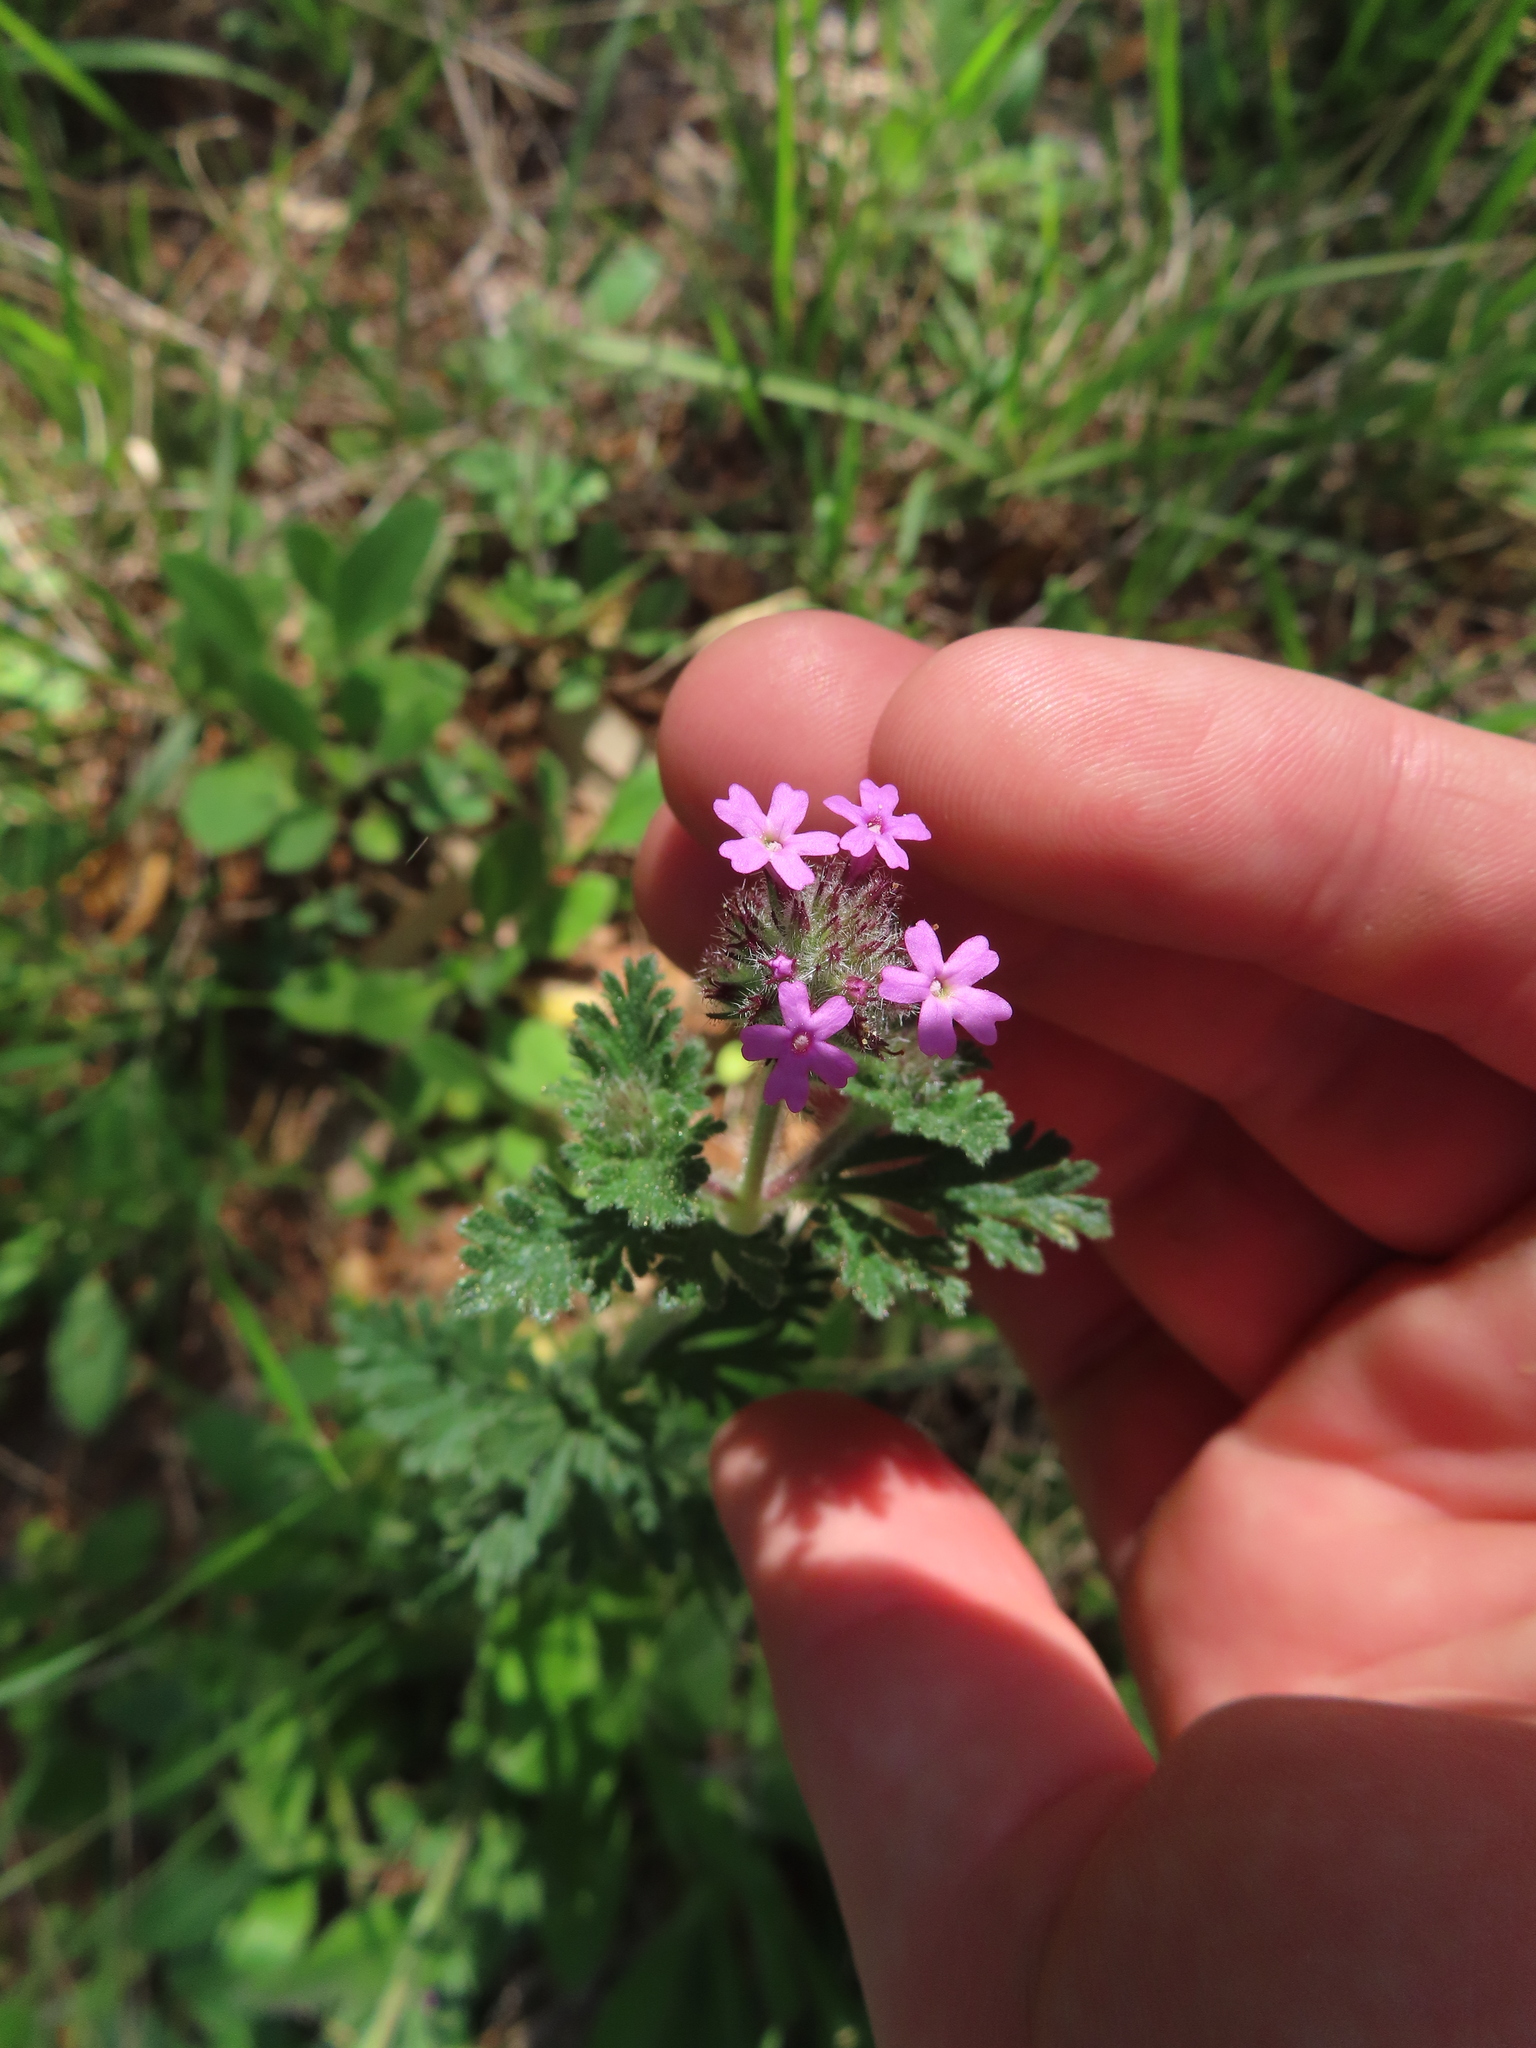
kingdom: Plantae
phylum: Tracheophyta
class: Magnoliopsida
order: Lamiales
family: Verbenaceae
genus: Verbena
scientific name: Verbena pumila
